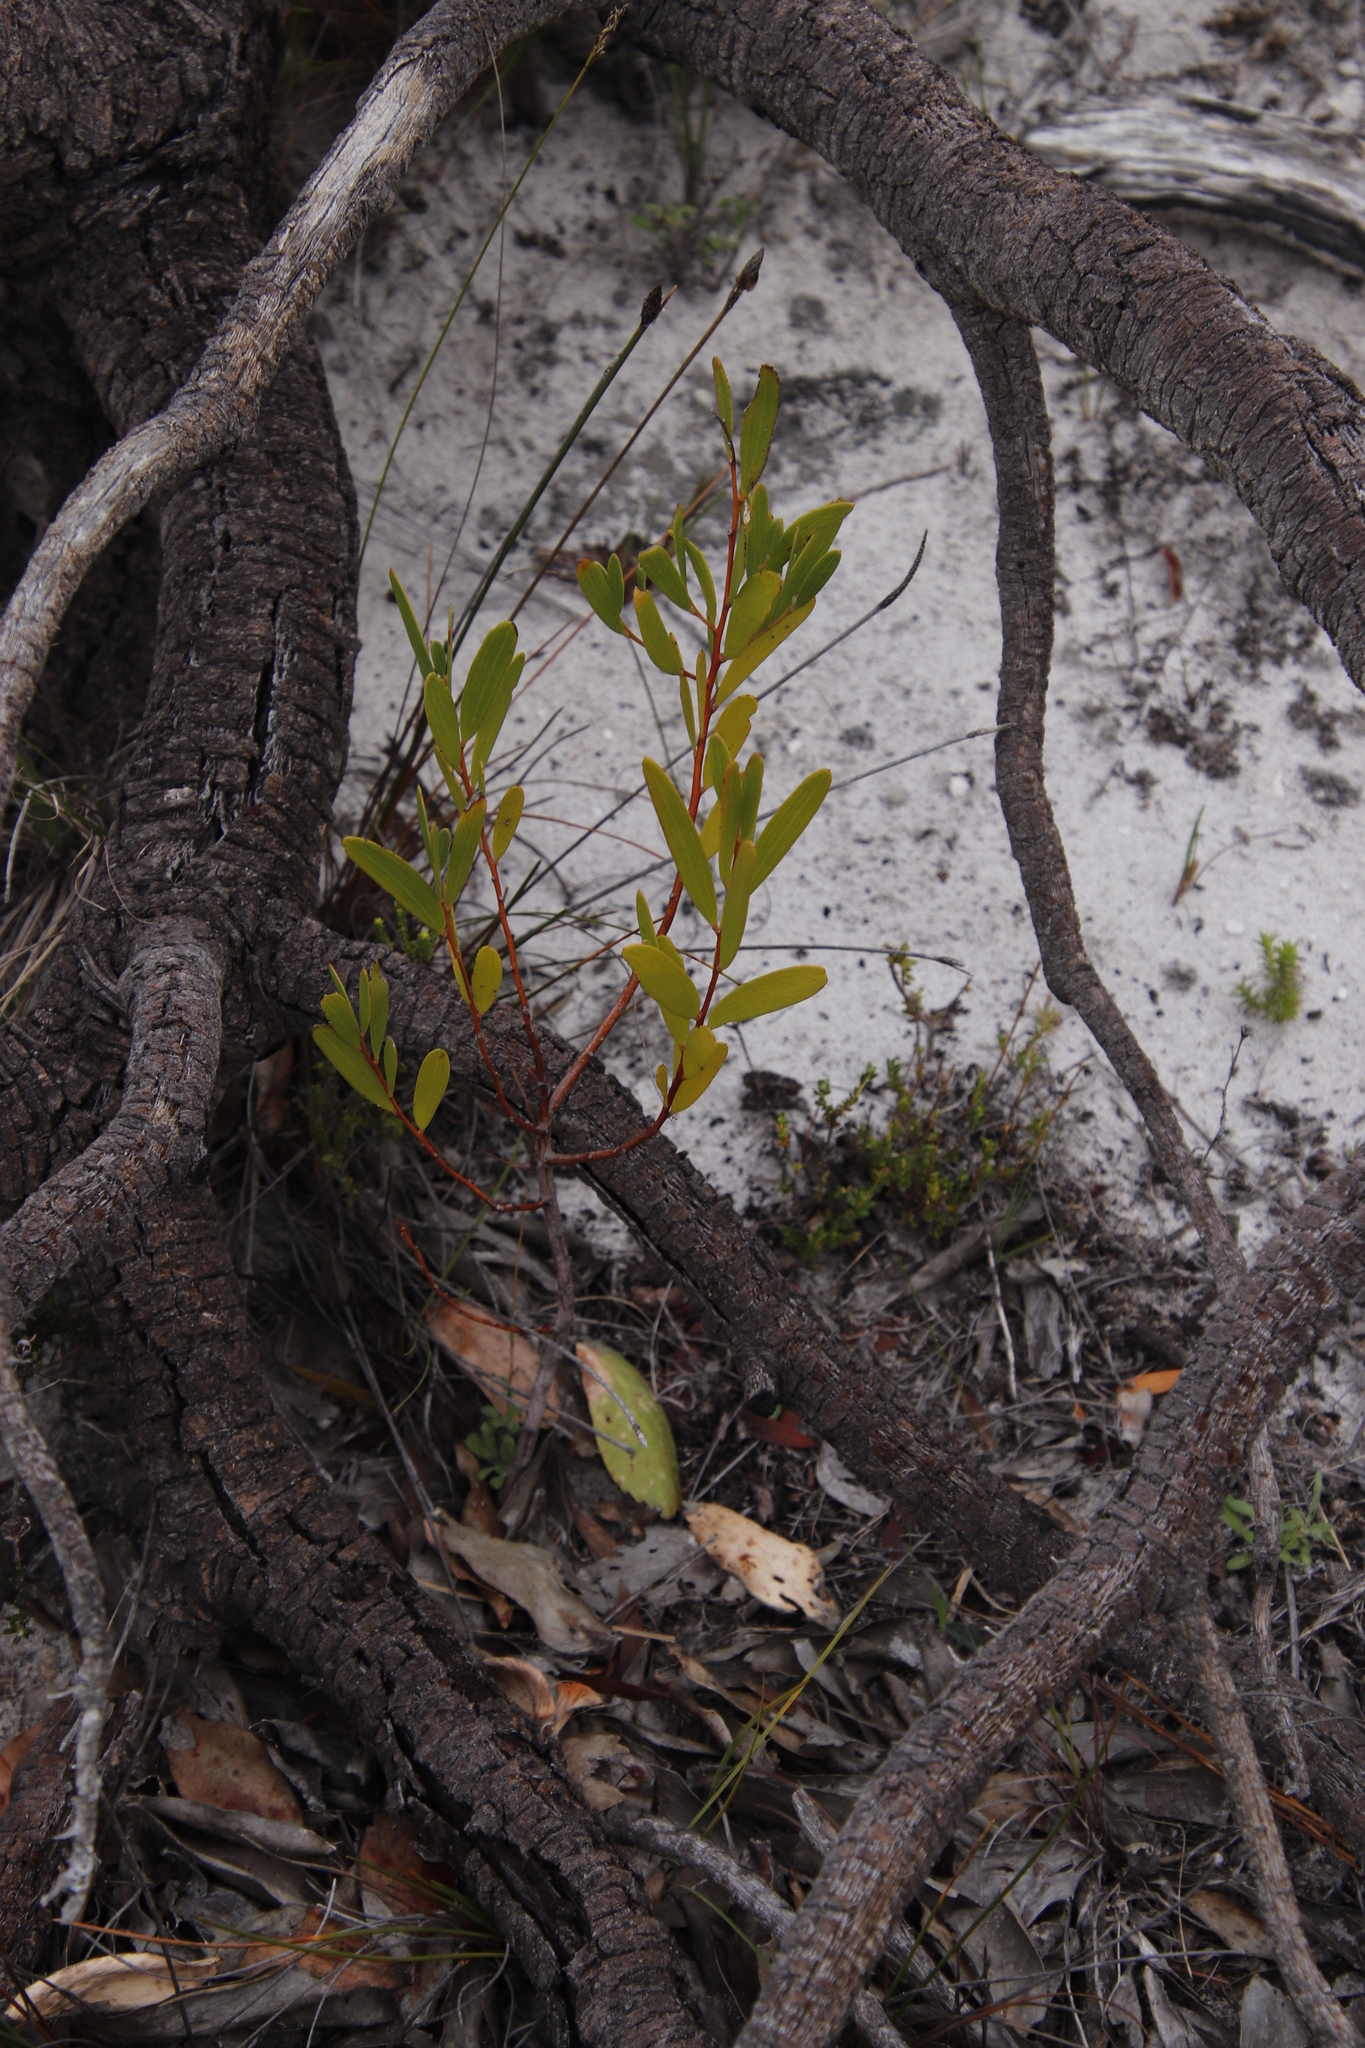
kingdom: Plantae
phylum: Tracheophyta
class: Magnoliopsida
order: Fabales
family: Fabaceae
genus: Acacia
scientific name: Acacia cyclops
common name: Coastal wattle
